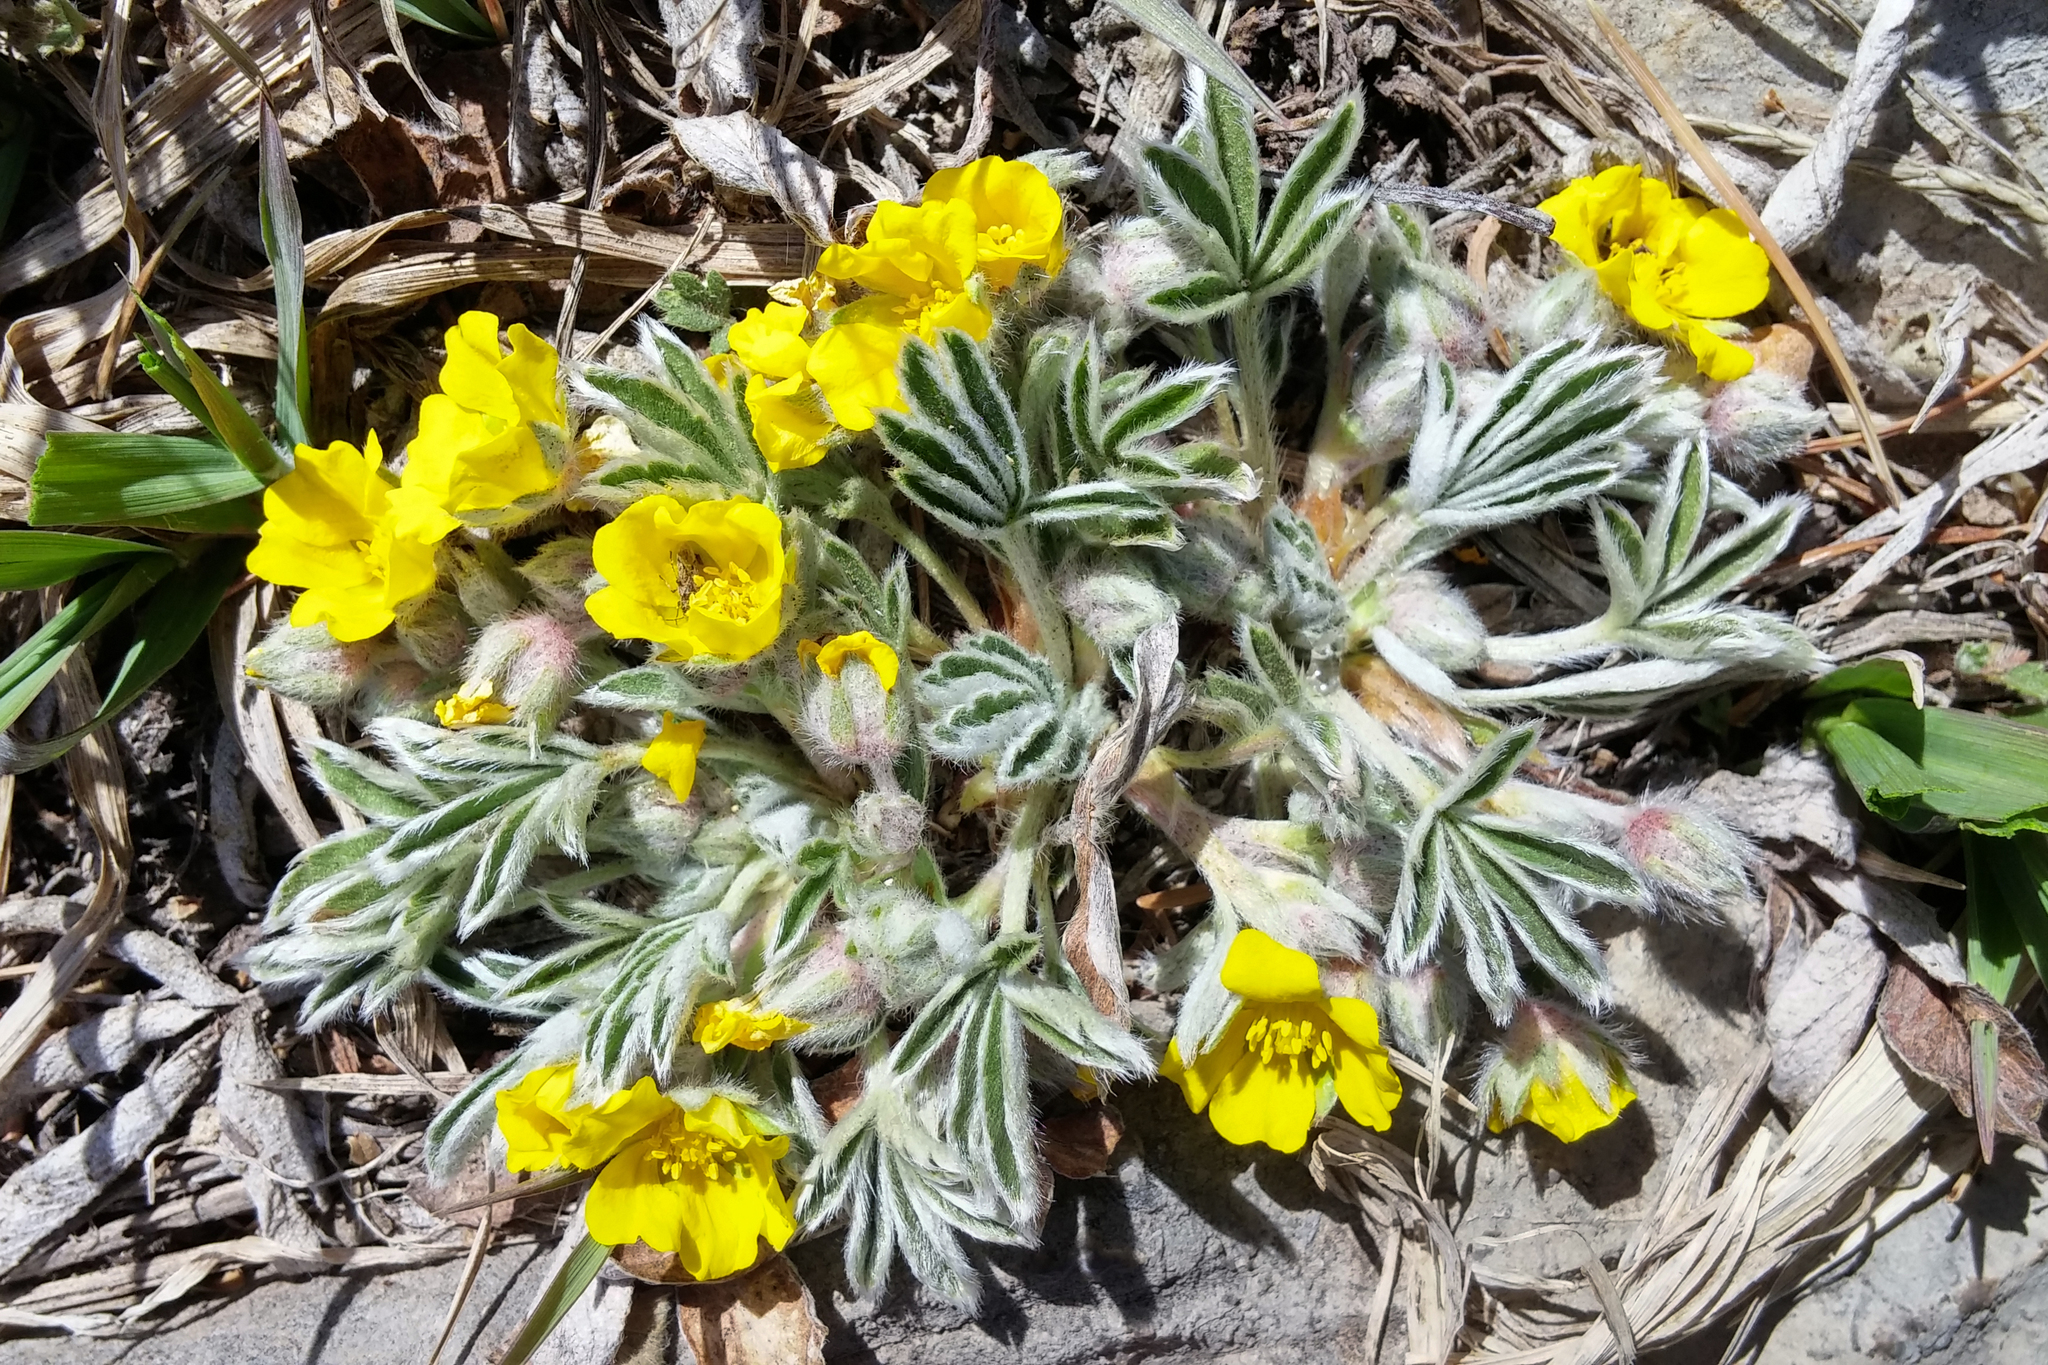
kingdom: Plantae
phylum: Tracheophyta
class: Magnoliopsida
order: Rosales
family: Rosaceae
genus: Potentilla
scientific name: Potentilla concinna
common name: Early cinquefoil
